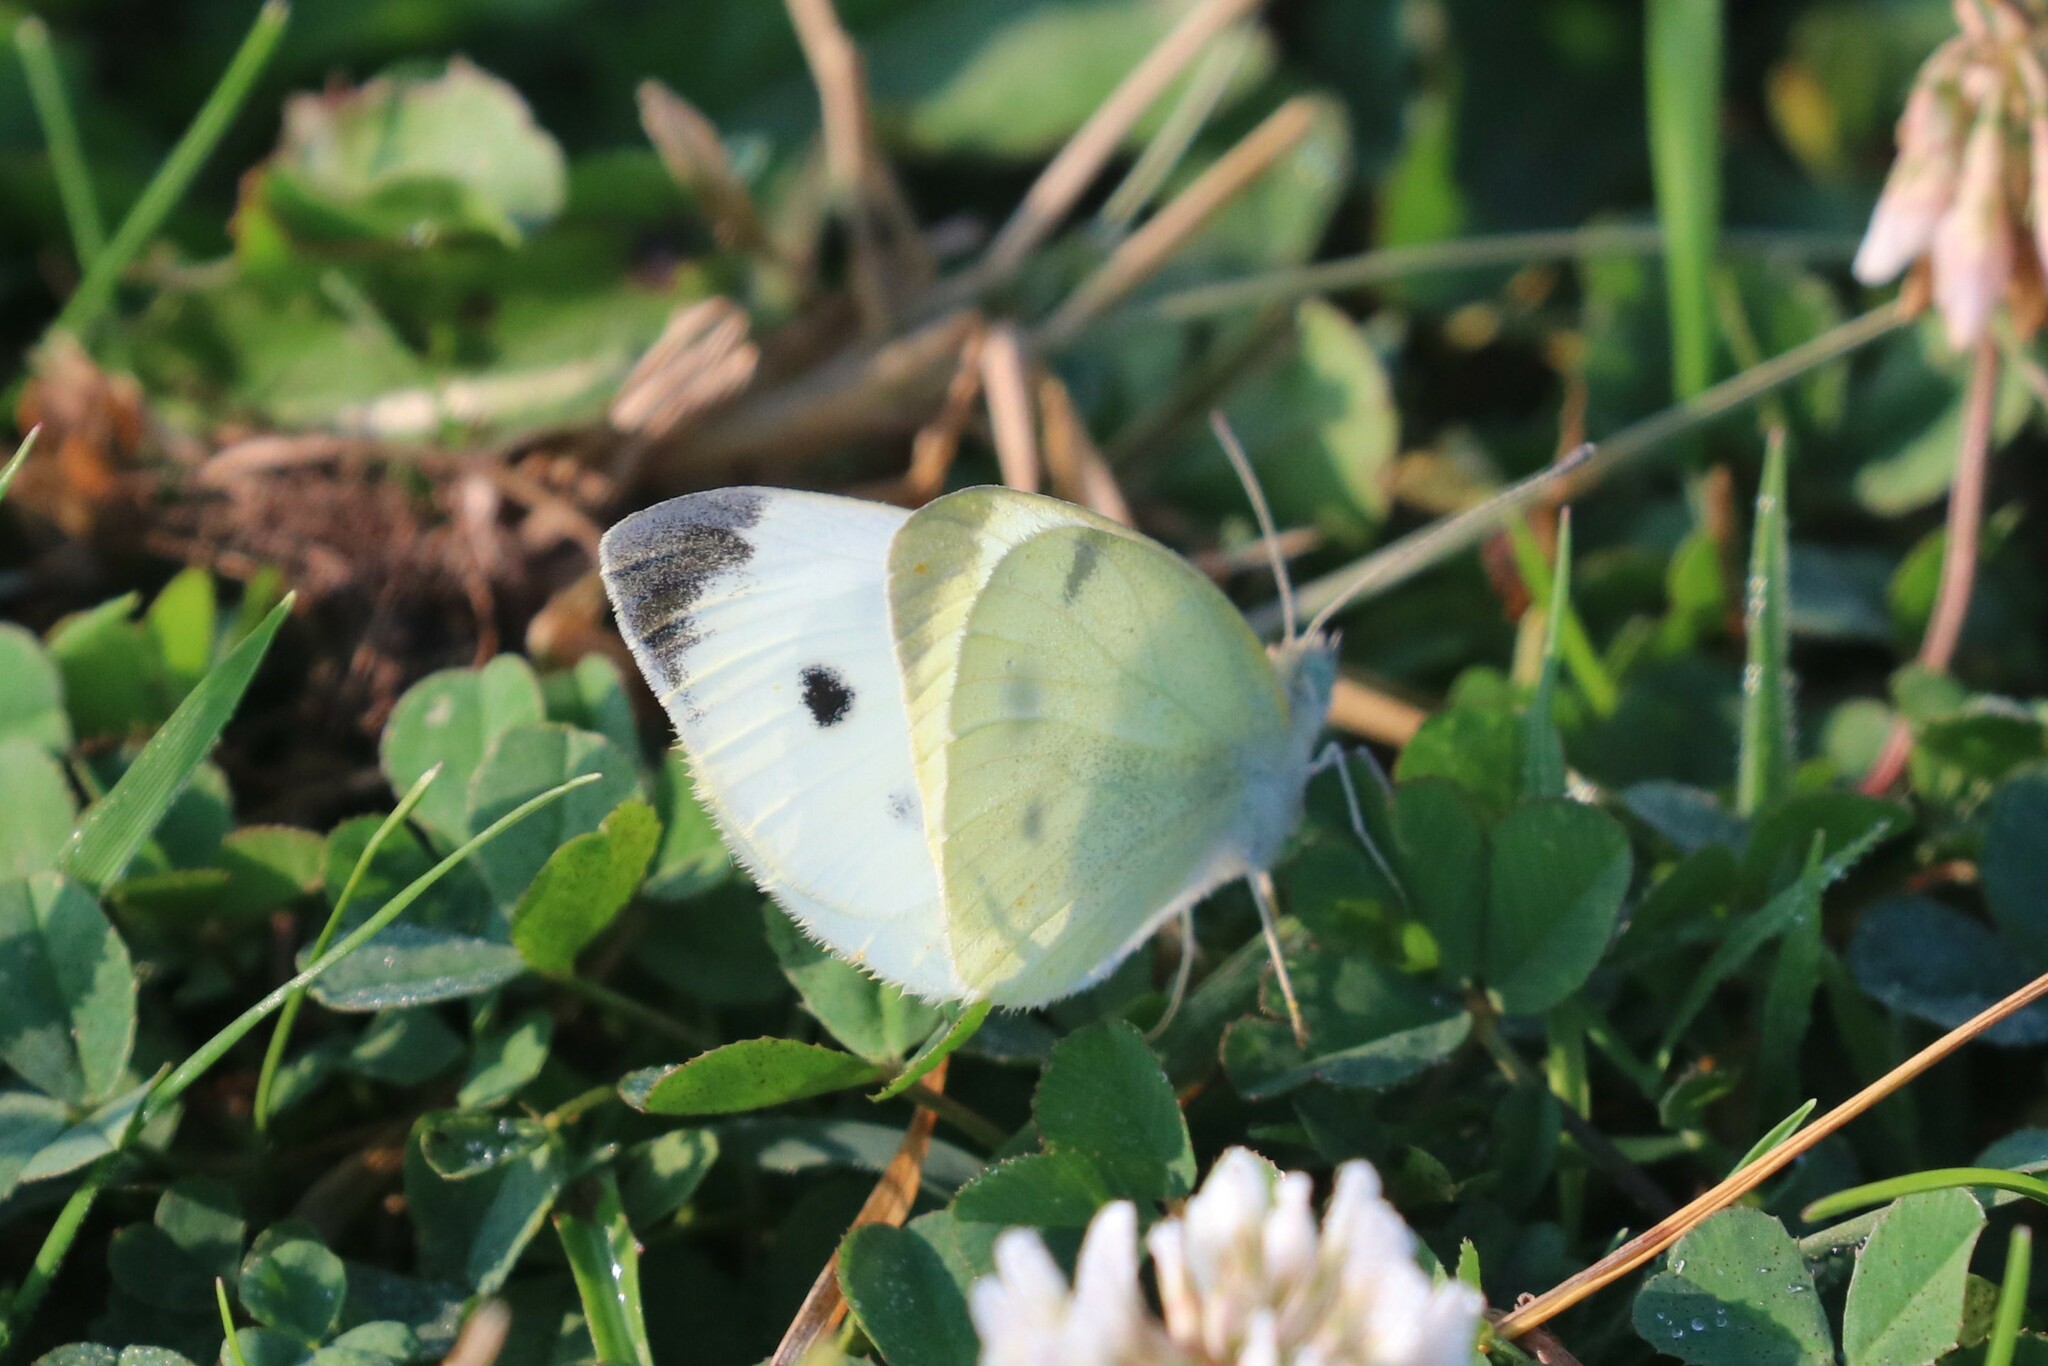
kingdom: Animalia
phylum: Arthropoda
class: Insecta
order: Lepidoptera
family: Pieridae
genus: Pieris
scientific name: Pieris rapae
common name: Small white
